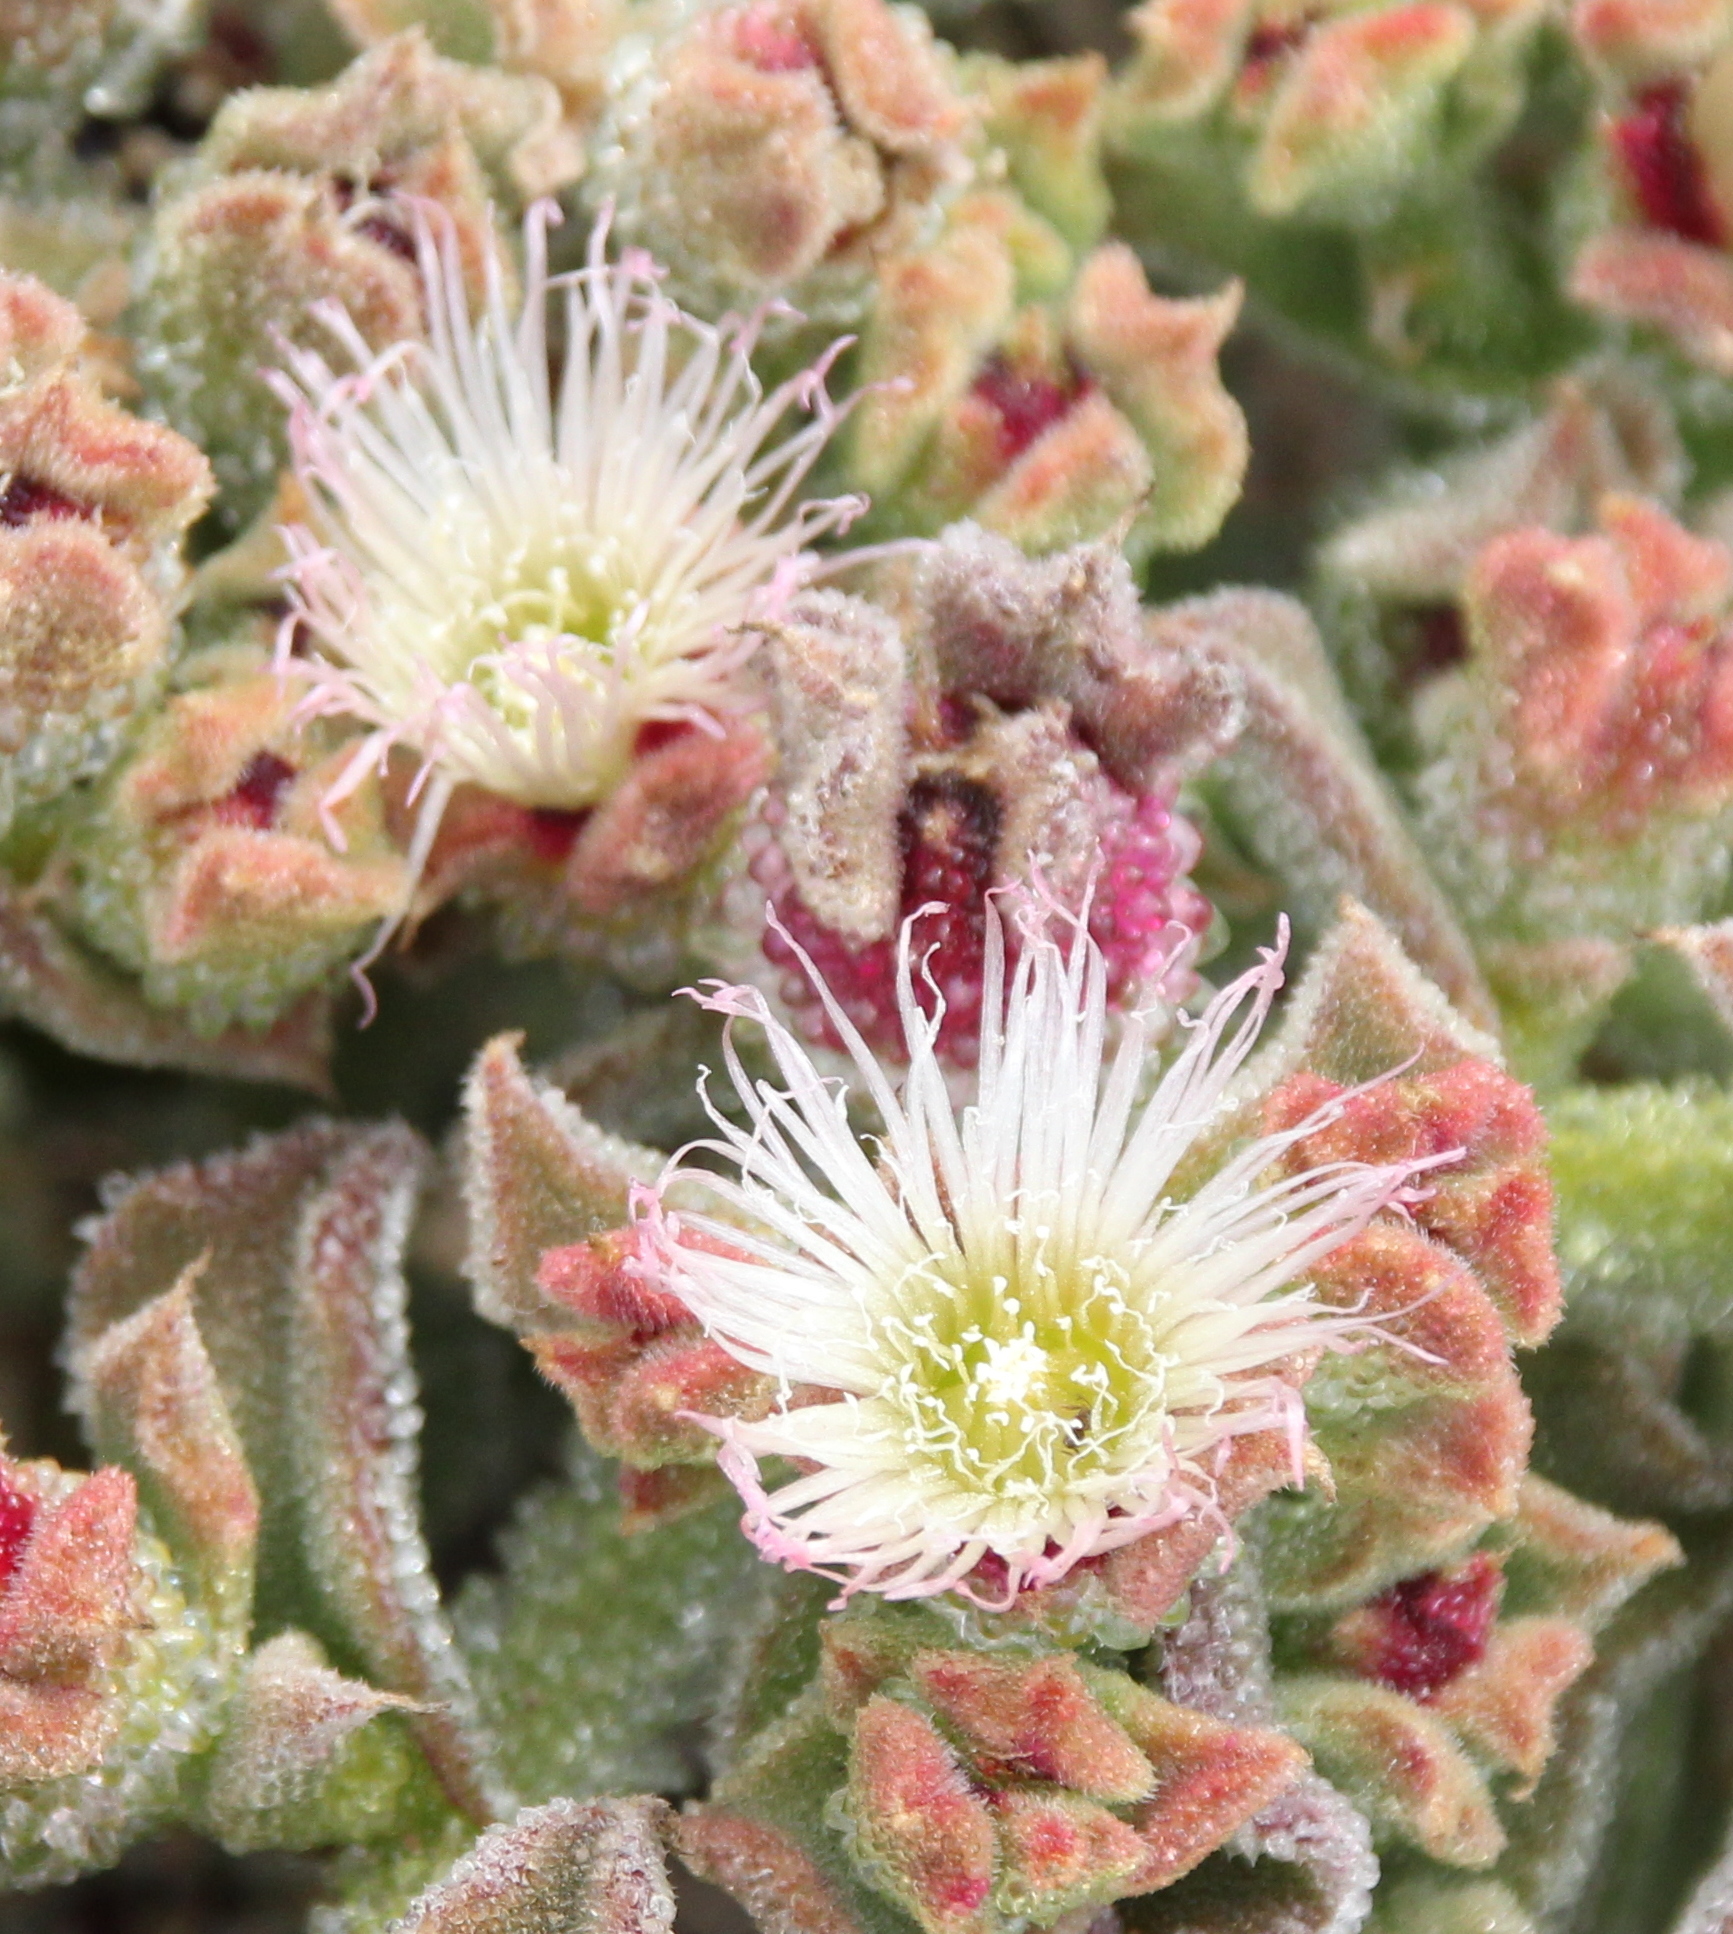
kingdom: Plantae
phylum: Tracheophyta
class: Magnoliopsida
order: Caryophyllales
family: Aizoaceae
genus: Mesembryanthemum
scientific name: Mesembryanthemum crystallinum
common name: Common iceplant
